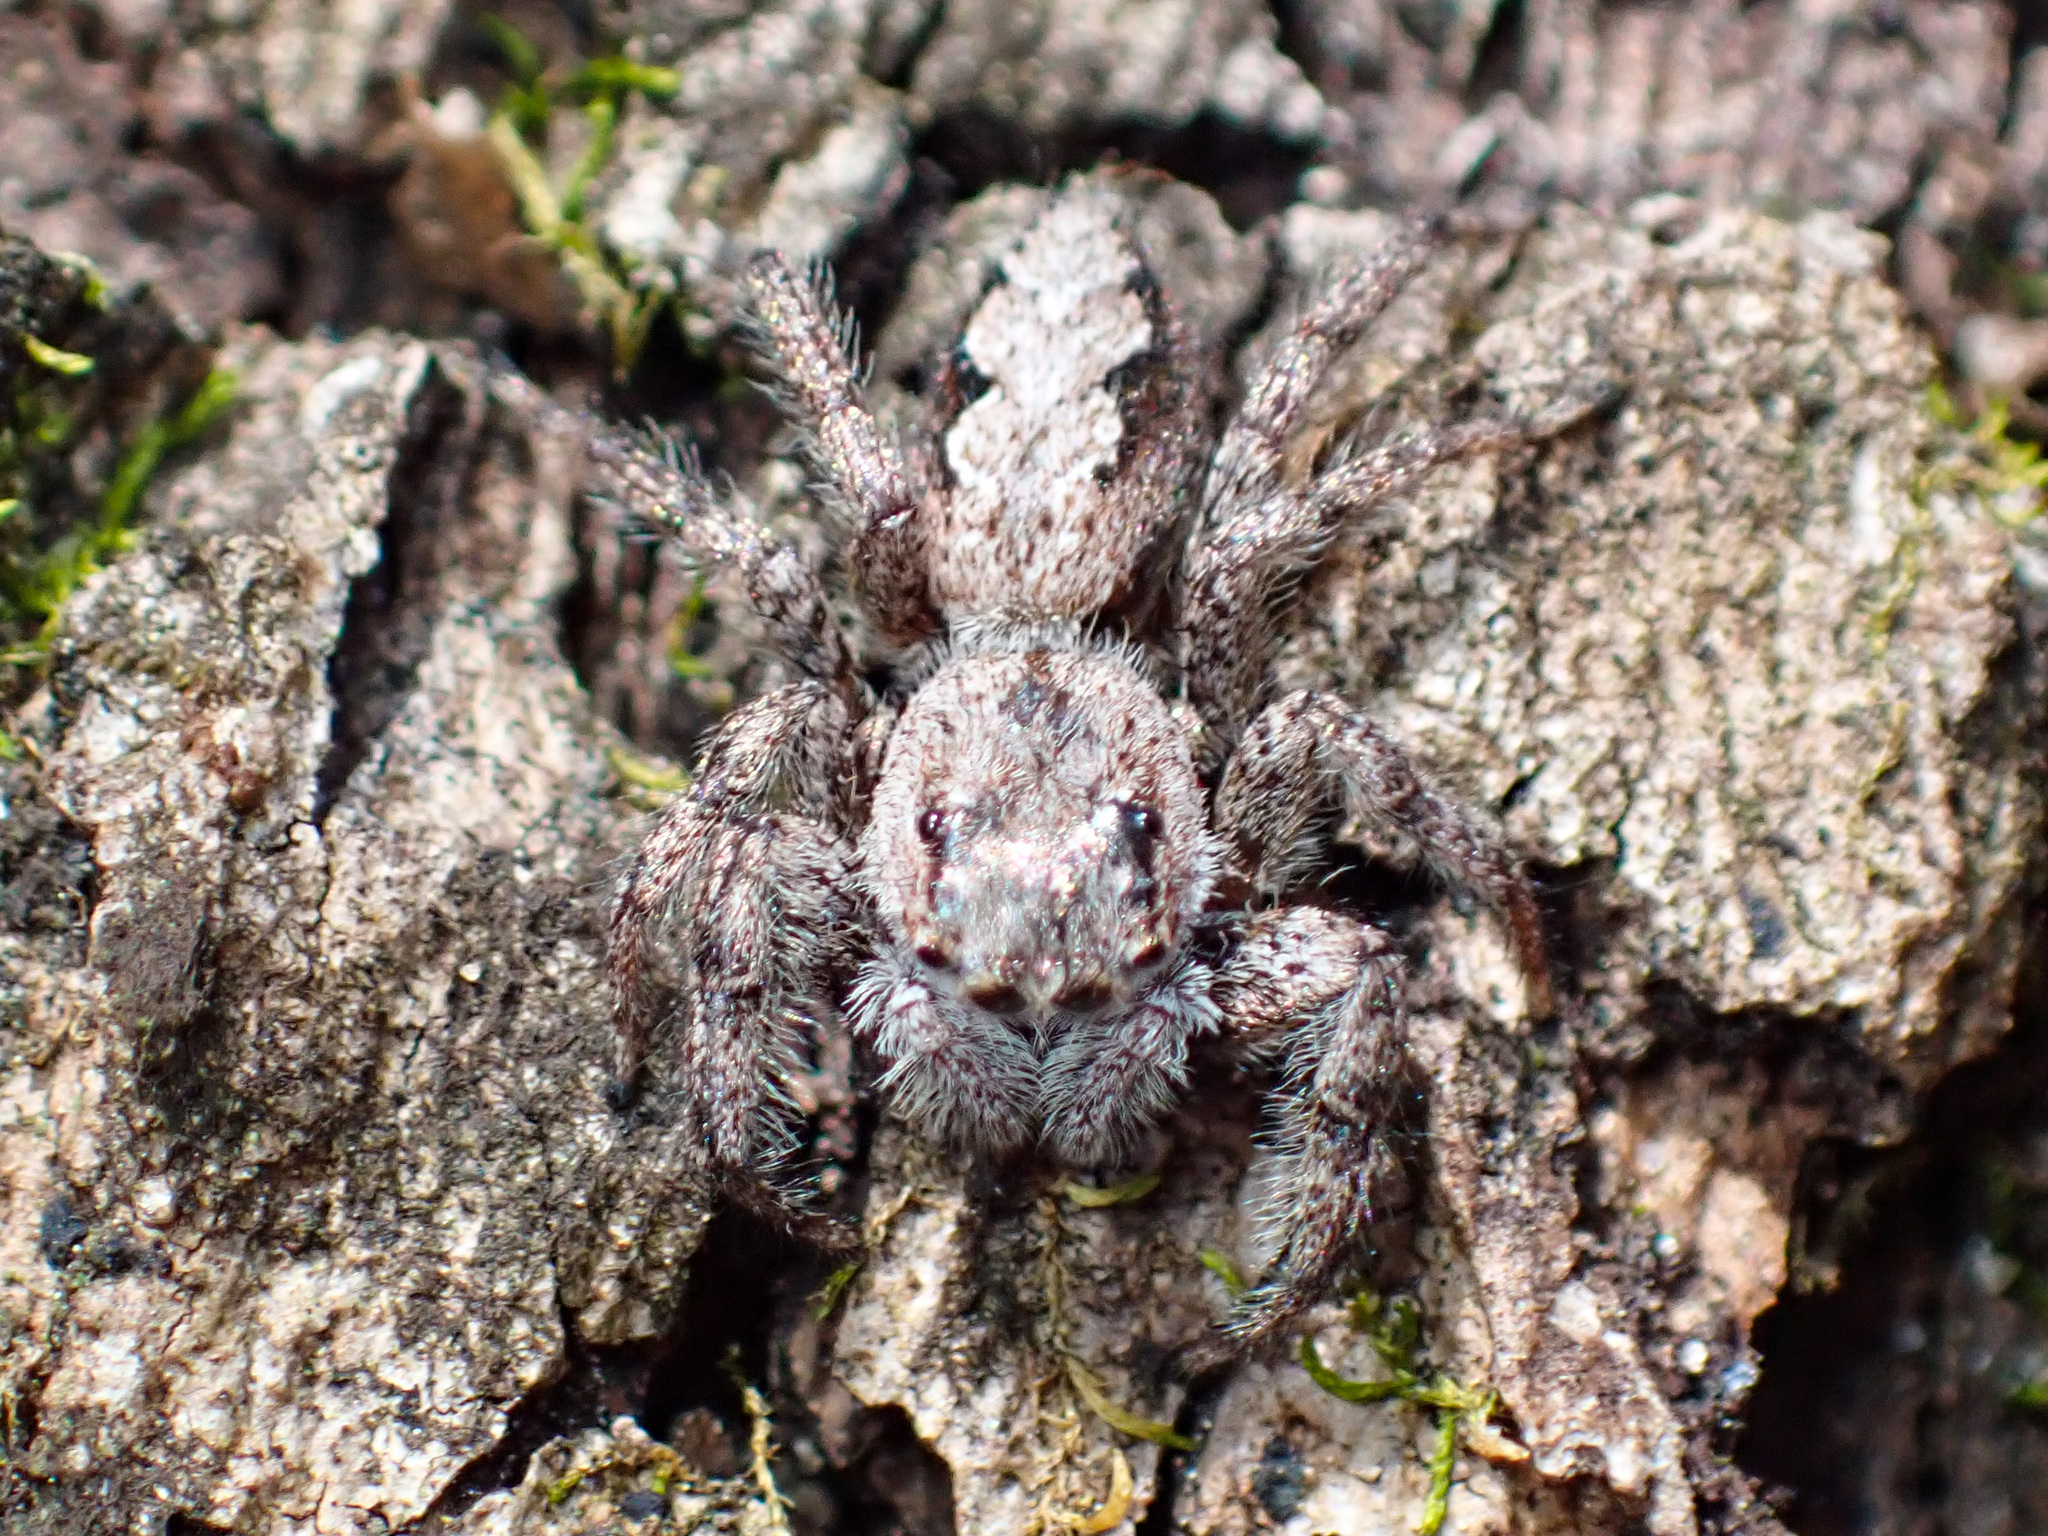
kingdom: Animalia
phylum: Arthropoda
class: Arachnida
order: Araneae
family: Salticidae
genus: Platycryptus
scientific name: Platycryptus undatus
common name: Tan jumping spider
